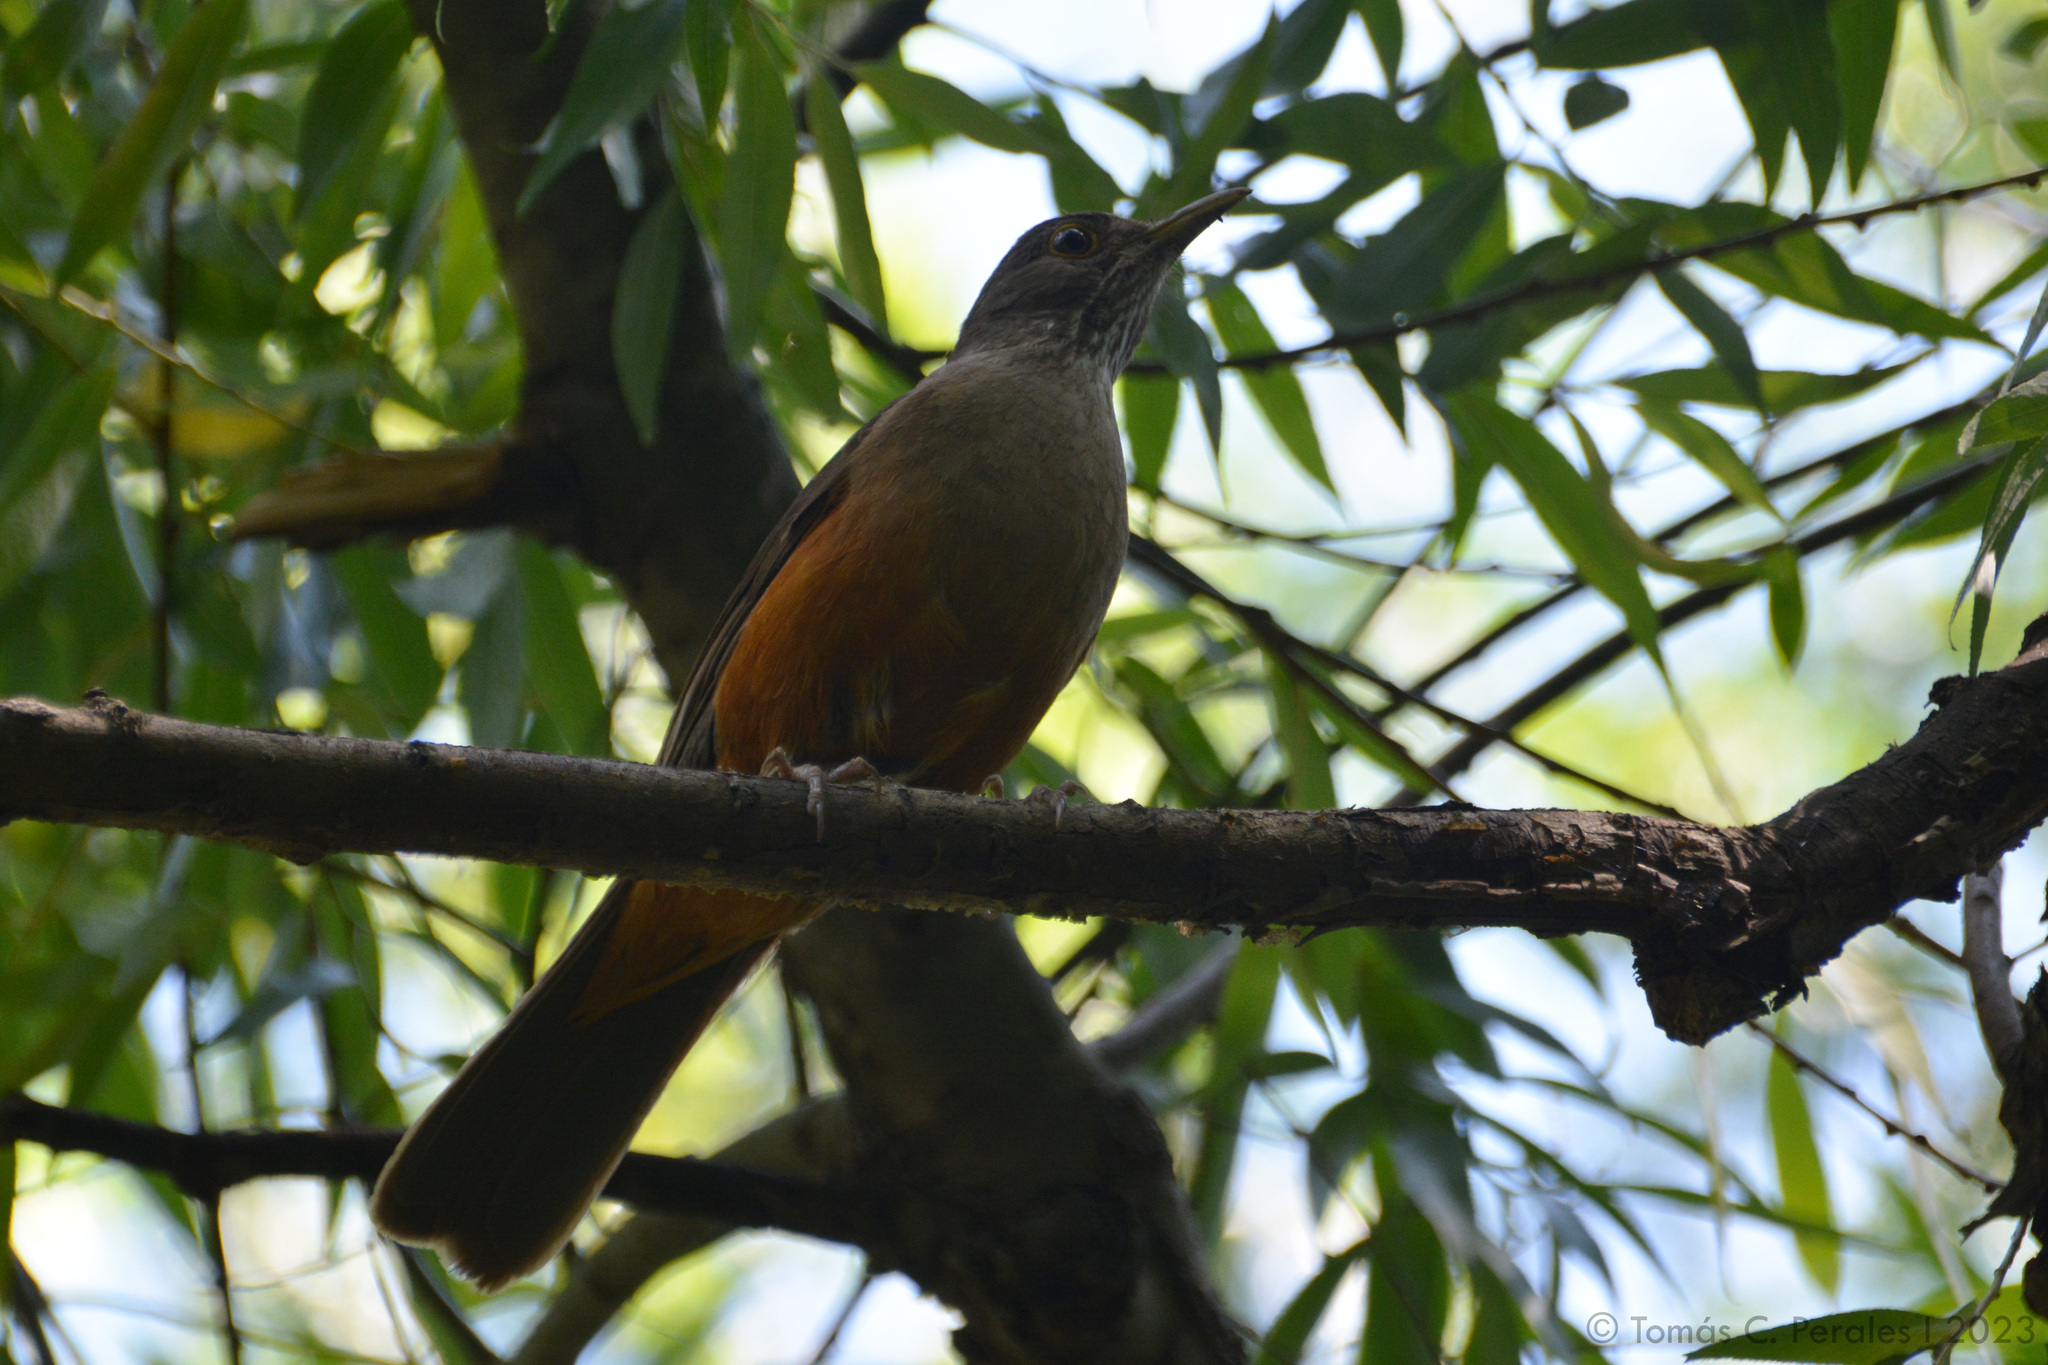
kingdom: Animalia
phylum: Chordata
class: Aves
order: Passeriformes
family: Turdidae
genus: Turdus
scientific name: Turdus rufiventris
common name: Rufous-bellied thrush
